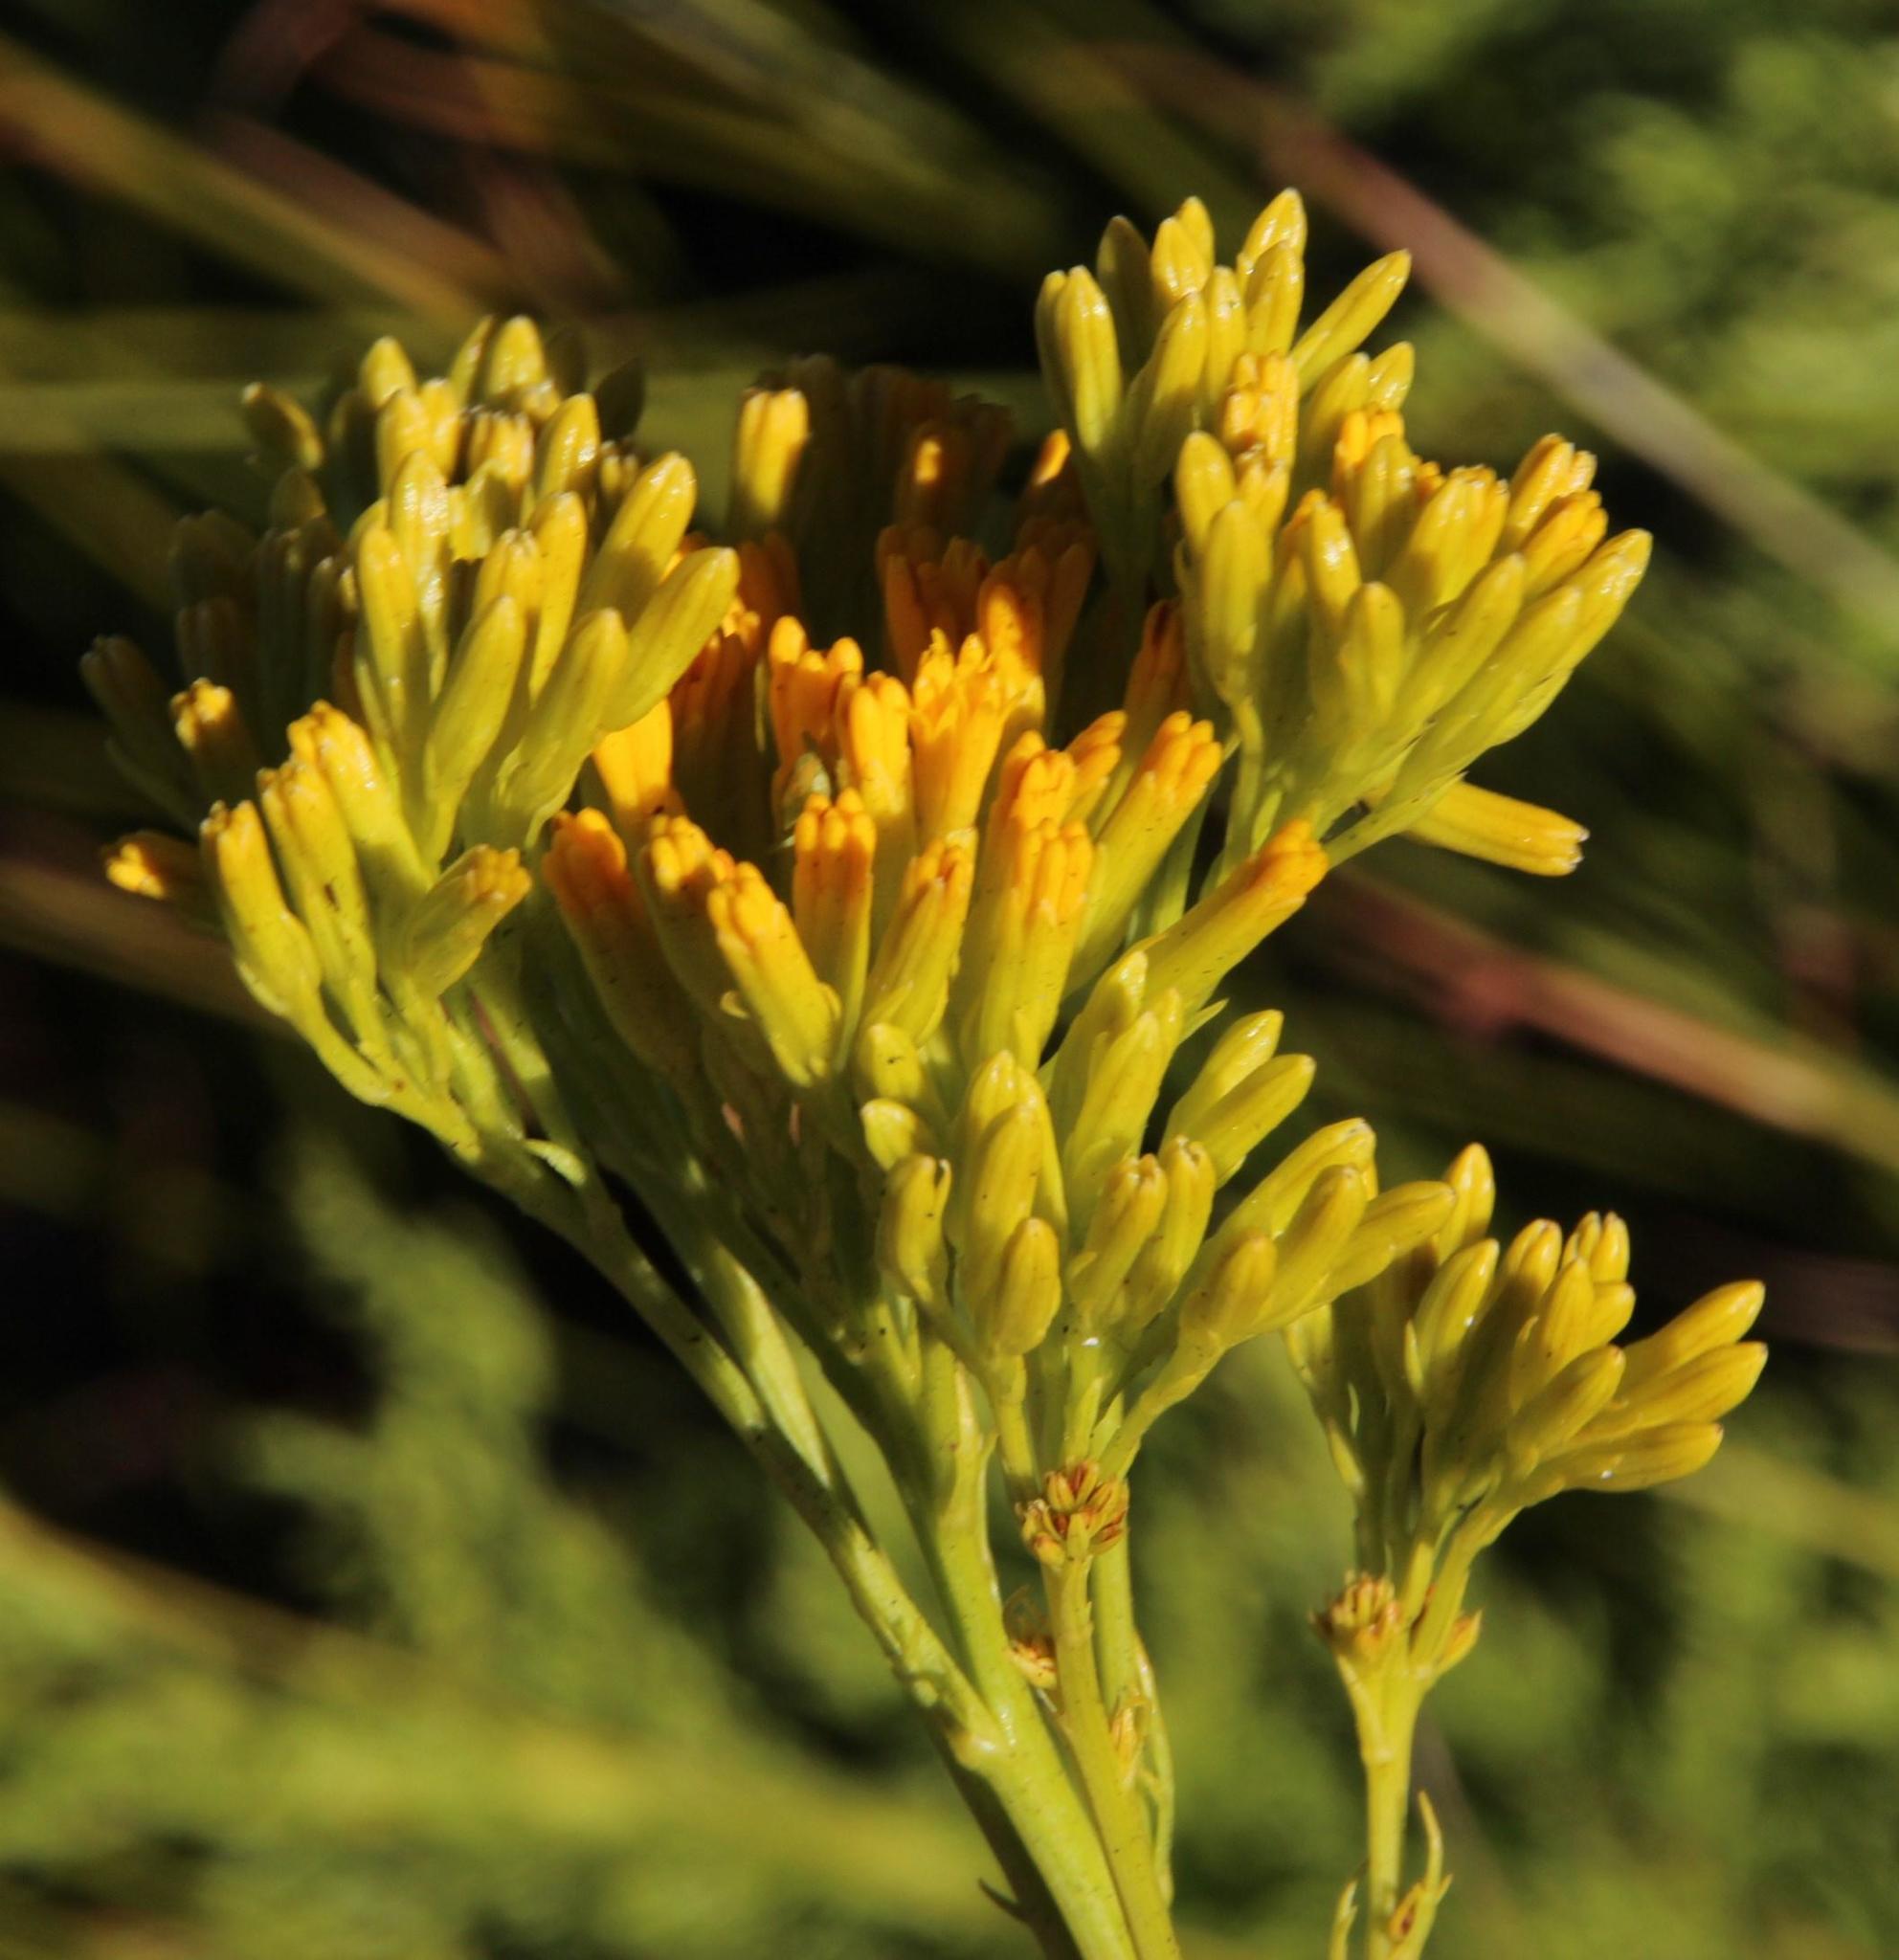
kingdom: Plantae
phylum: Tracheophyta
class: Magnoliopsida
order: Asterales
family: Asteraceae
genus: Senecio
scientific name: Senecio bipinnatus
